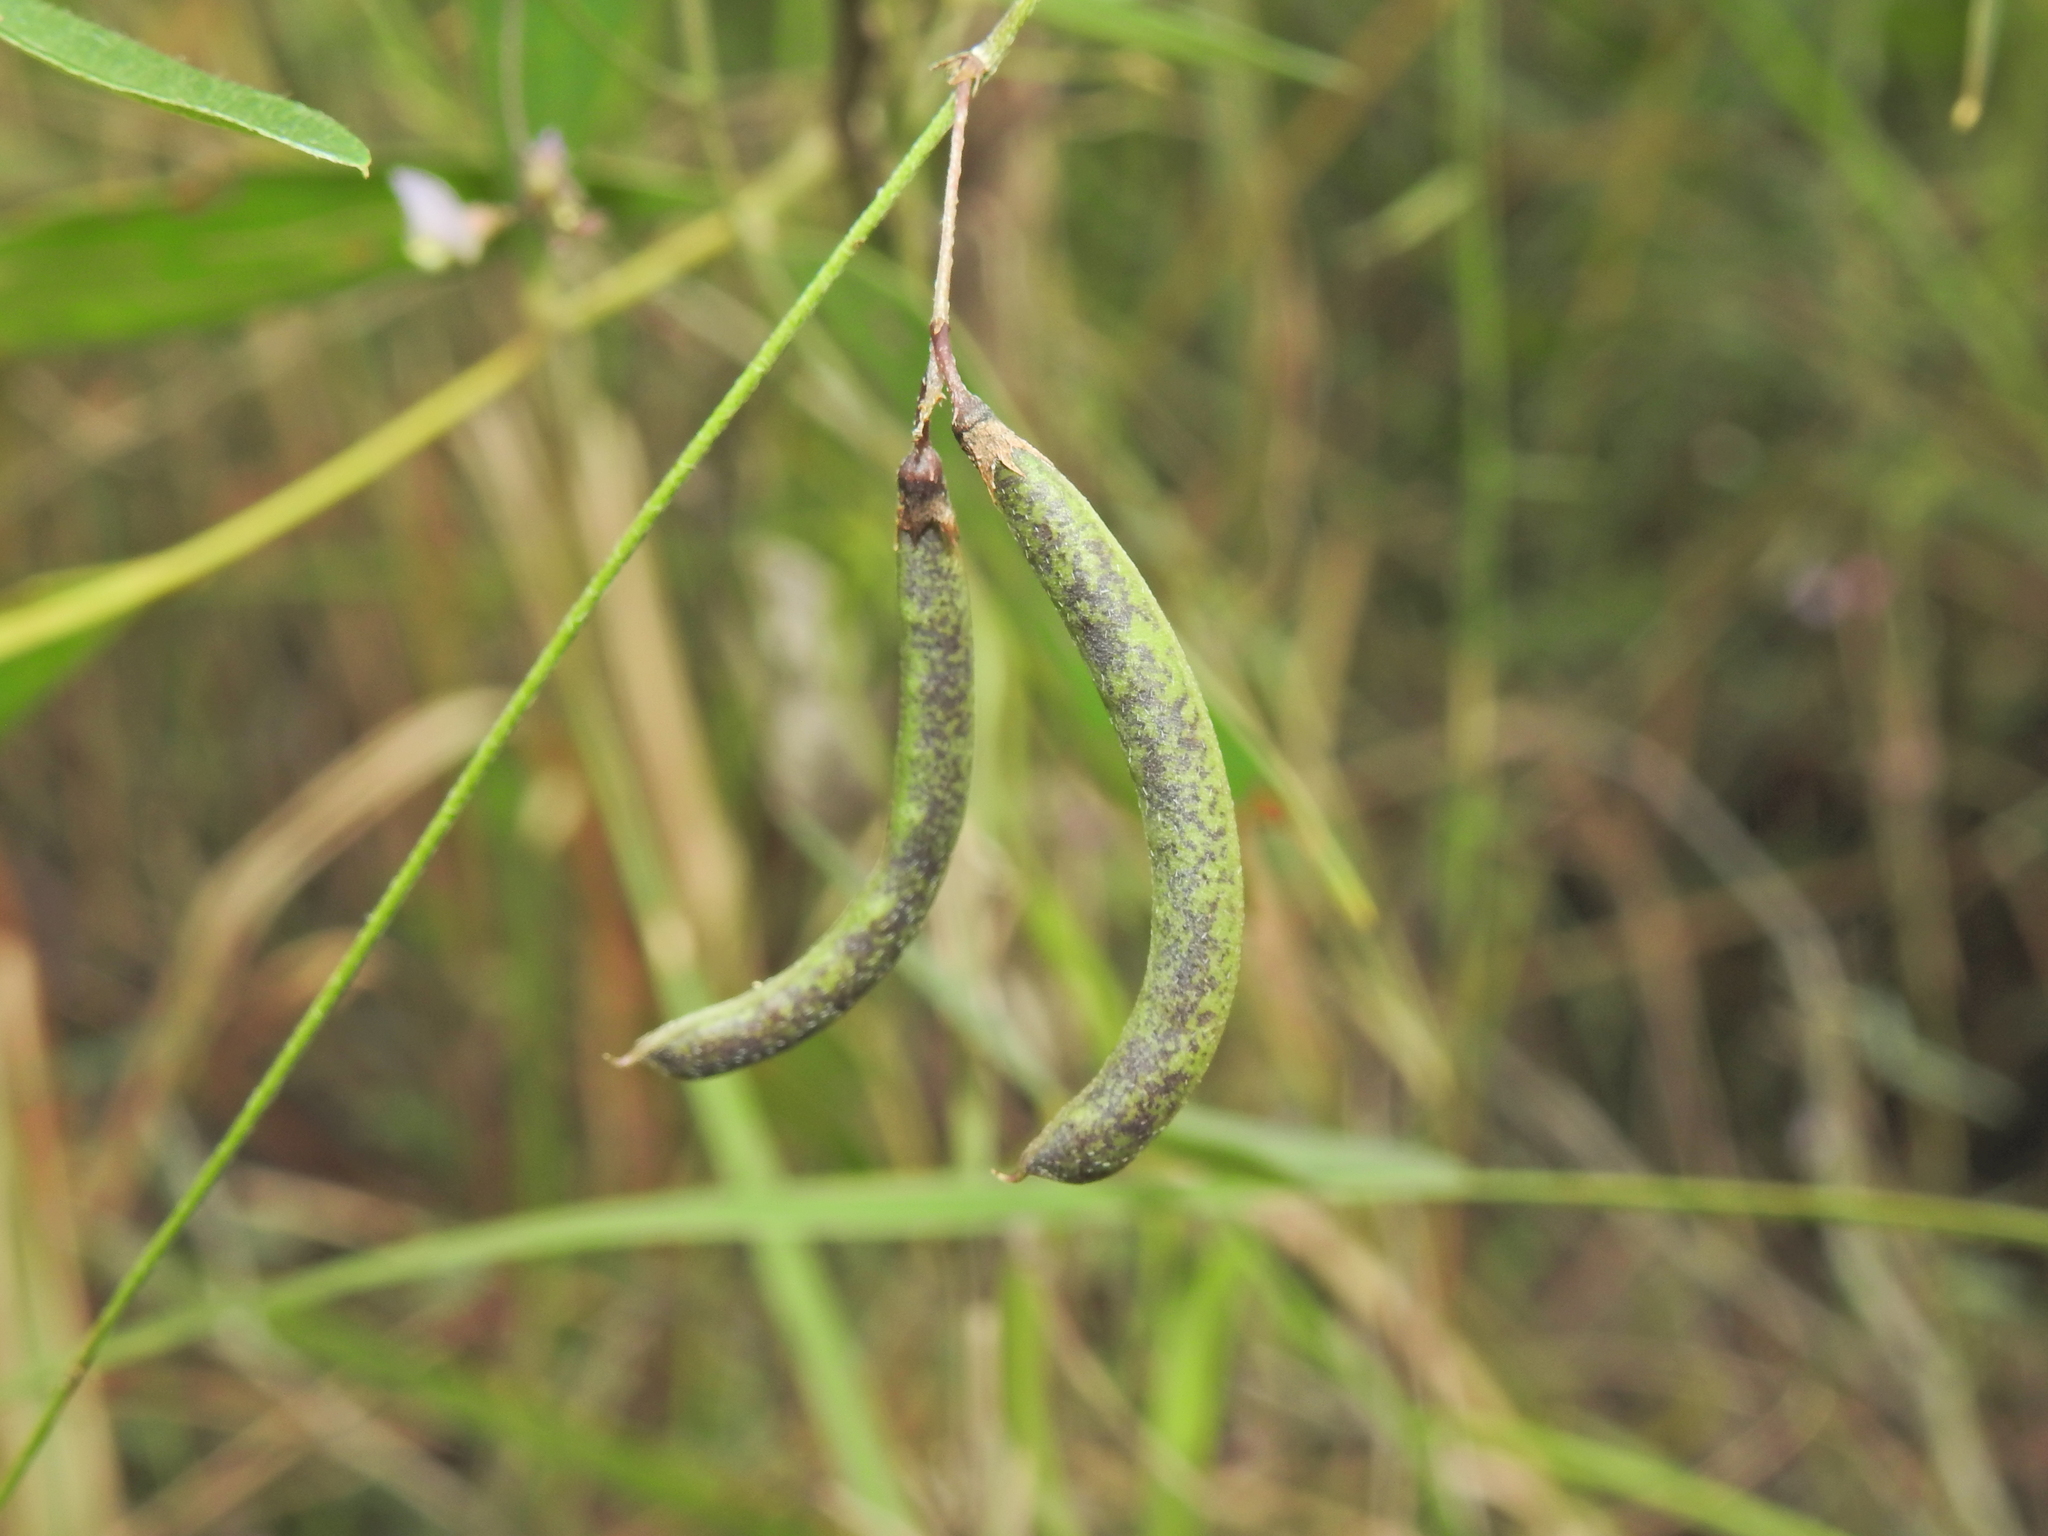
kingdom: Plantae
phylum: Tracheophyta
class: Magnoliopsida
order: Fabales
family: Fabaceae
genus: Glycine
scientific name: Glycine cyrtoloba
